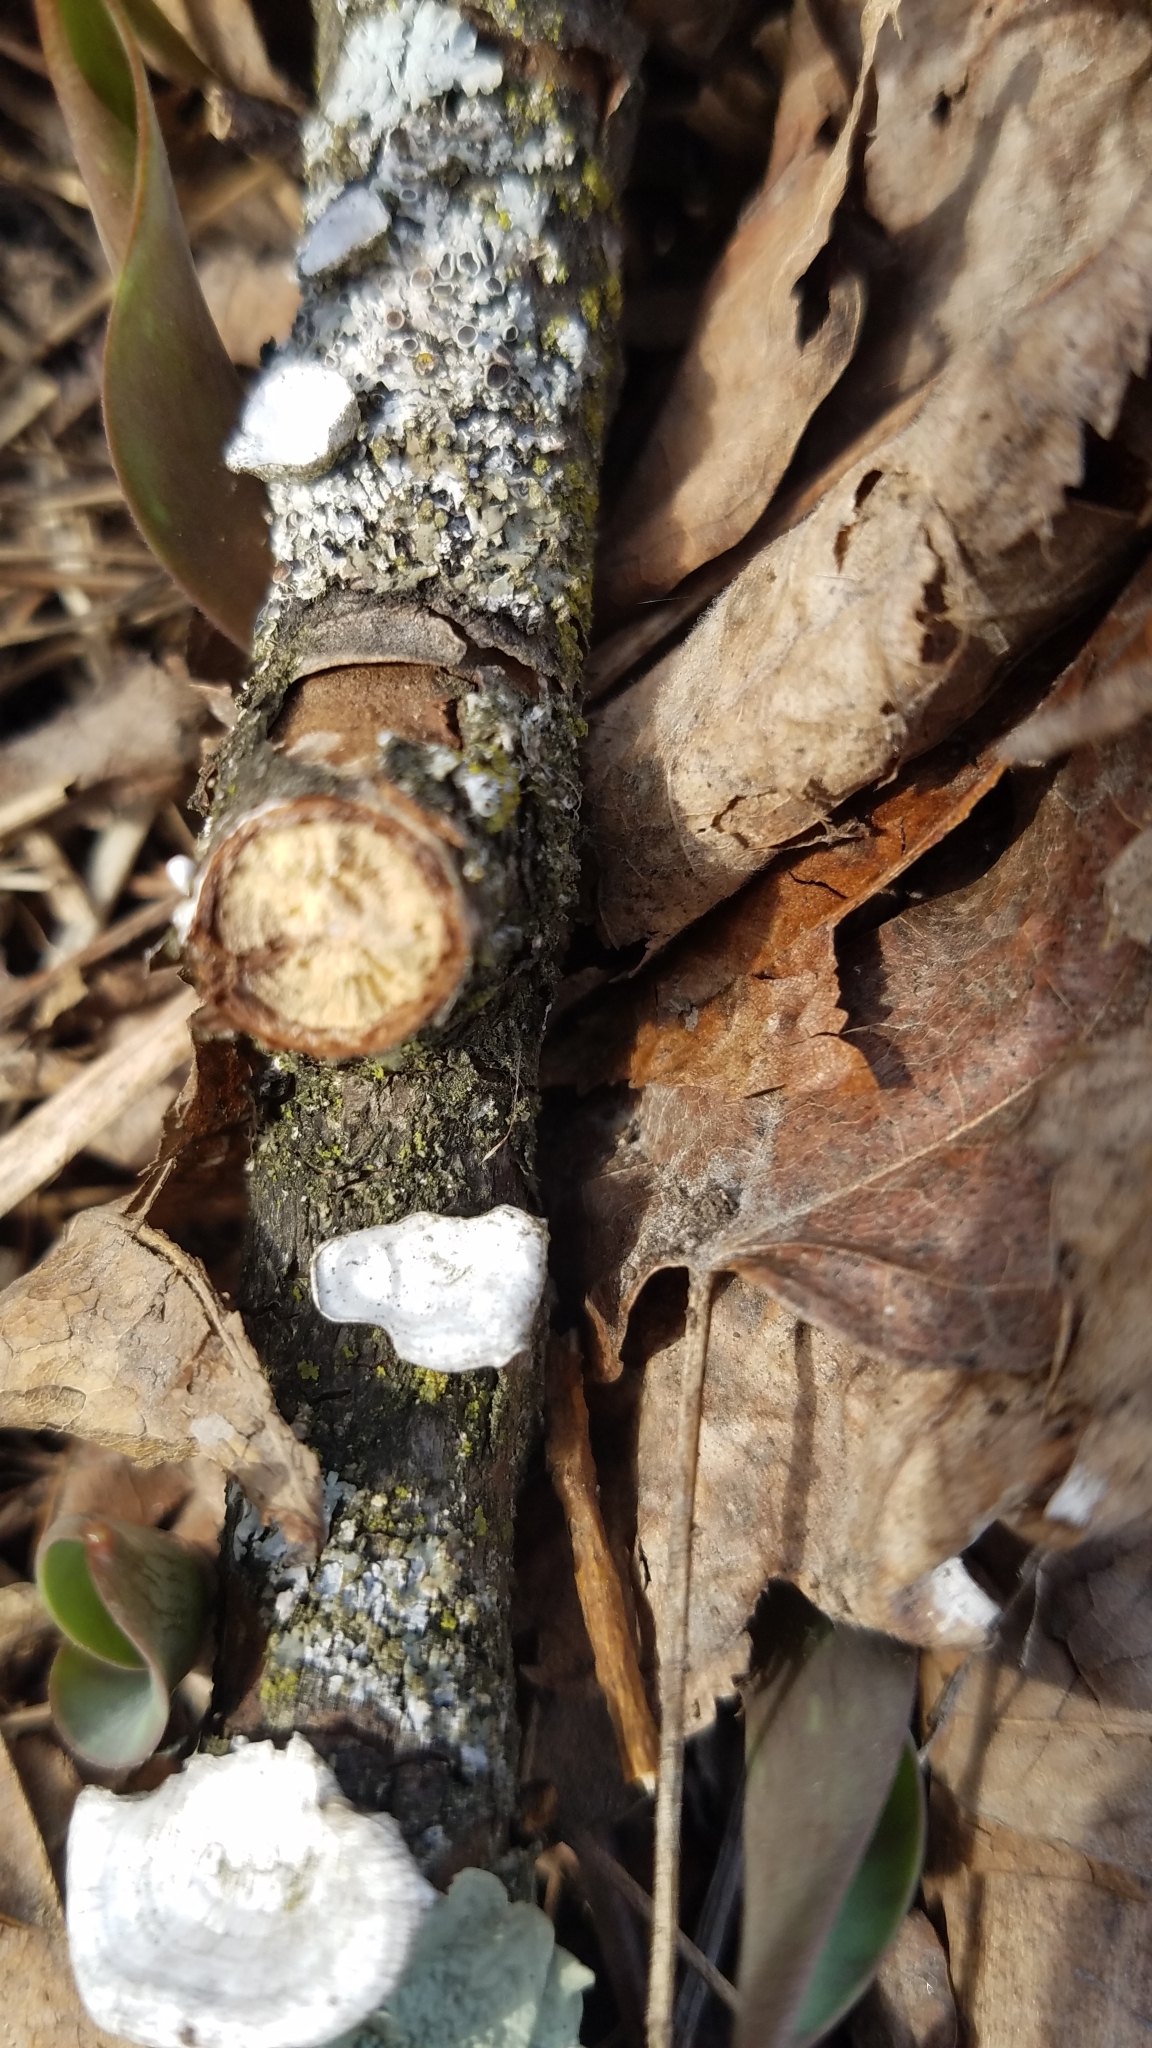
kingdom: Fungi
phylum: Basidiomycota
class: Agaricomycetes
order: Polyporales
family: Polyporaceae
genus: Poronidulus
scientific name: Poronidulus conchifer
